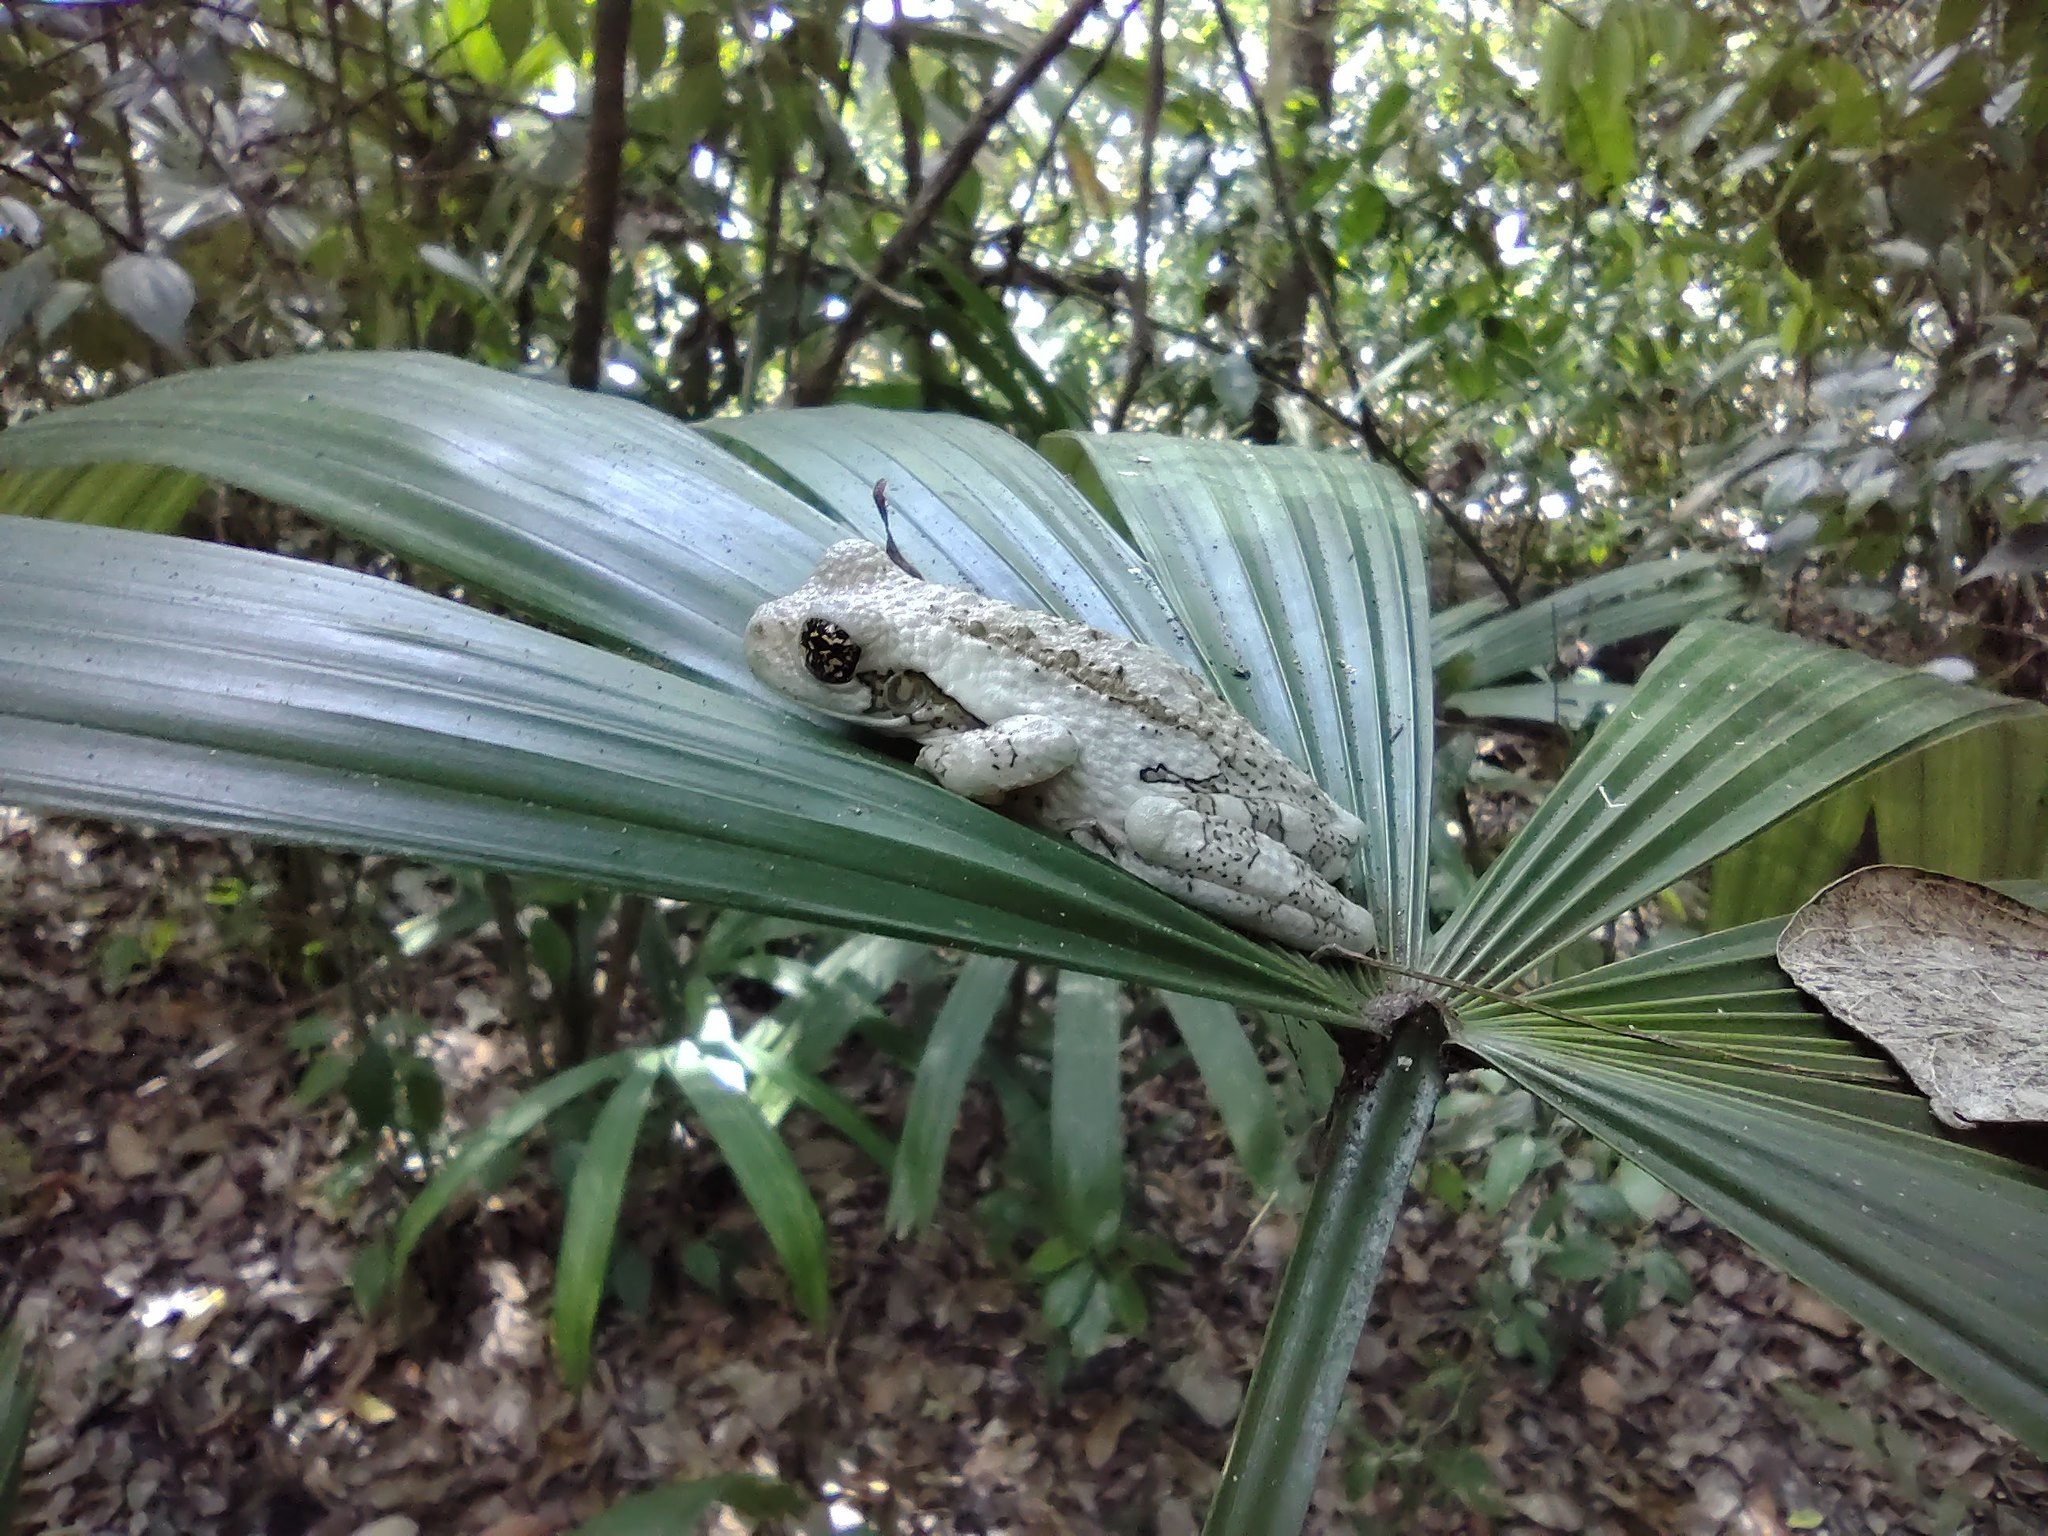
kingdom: Animalia
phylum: Chordata
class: Amphibia
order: Anura
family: Hylidae
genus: Trachycephalus
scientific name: Trachycephalus vermiculatus
